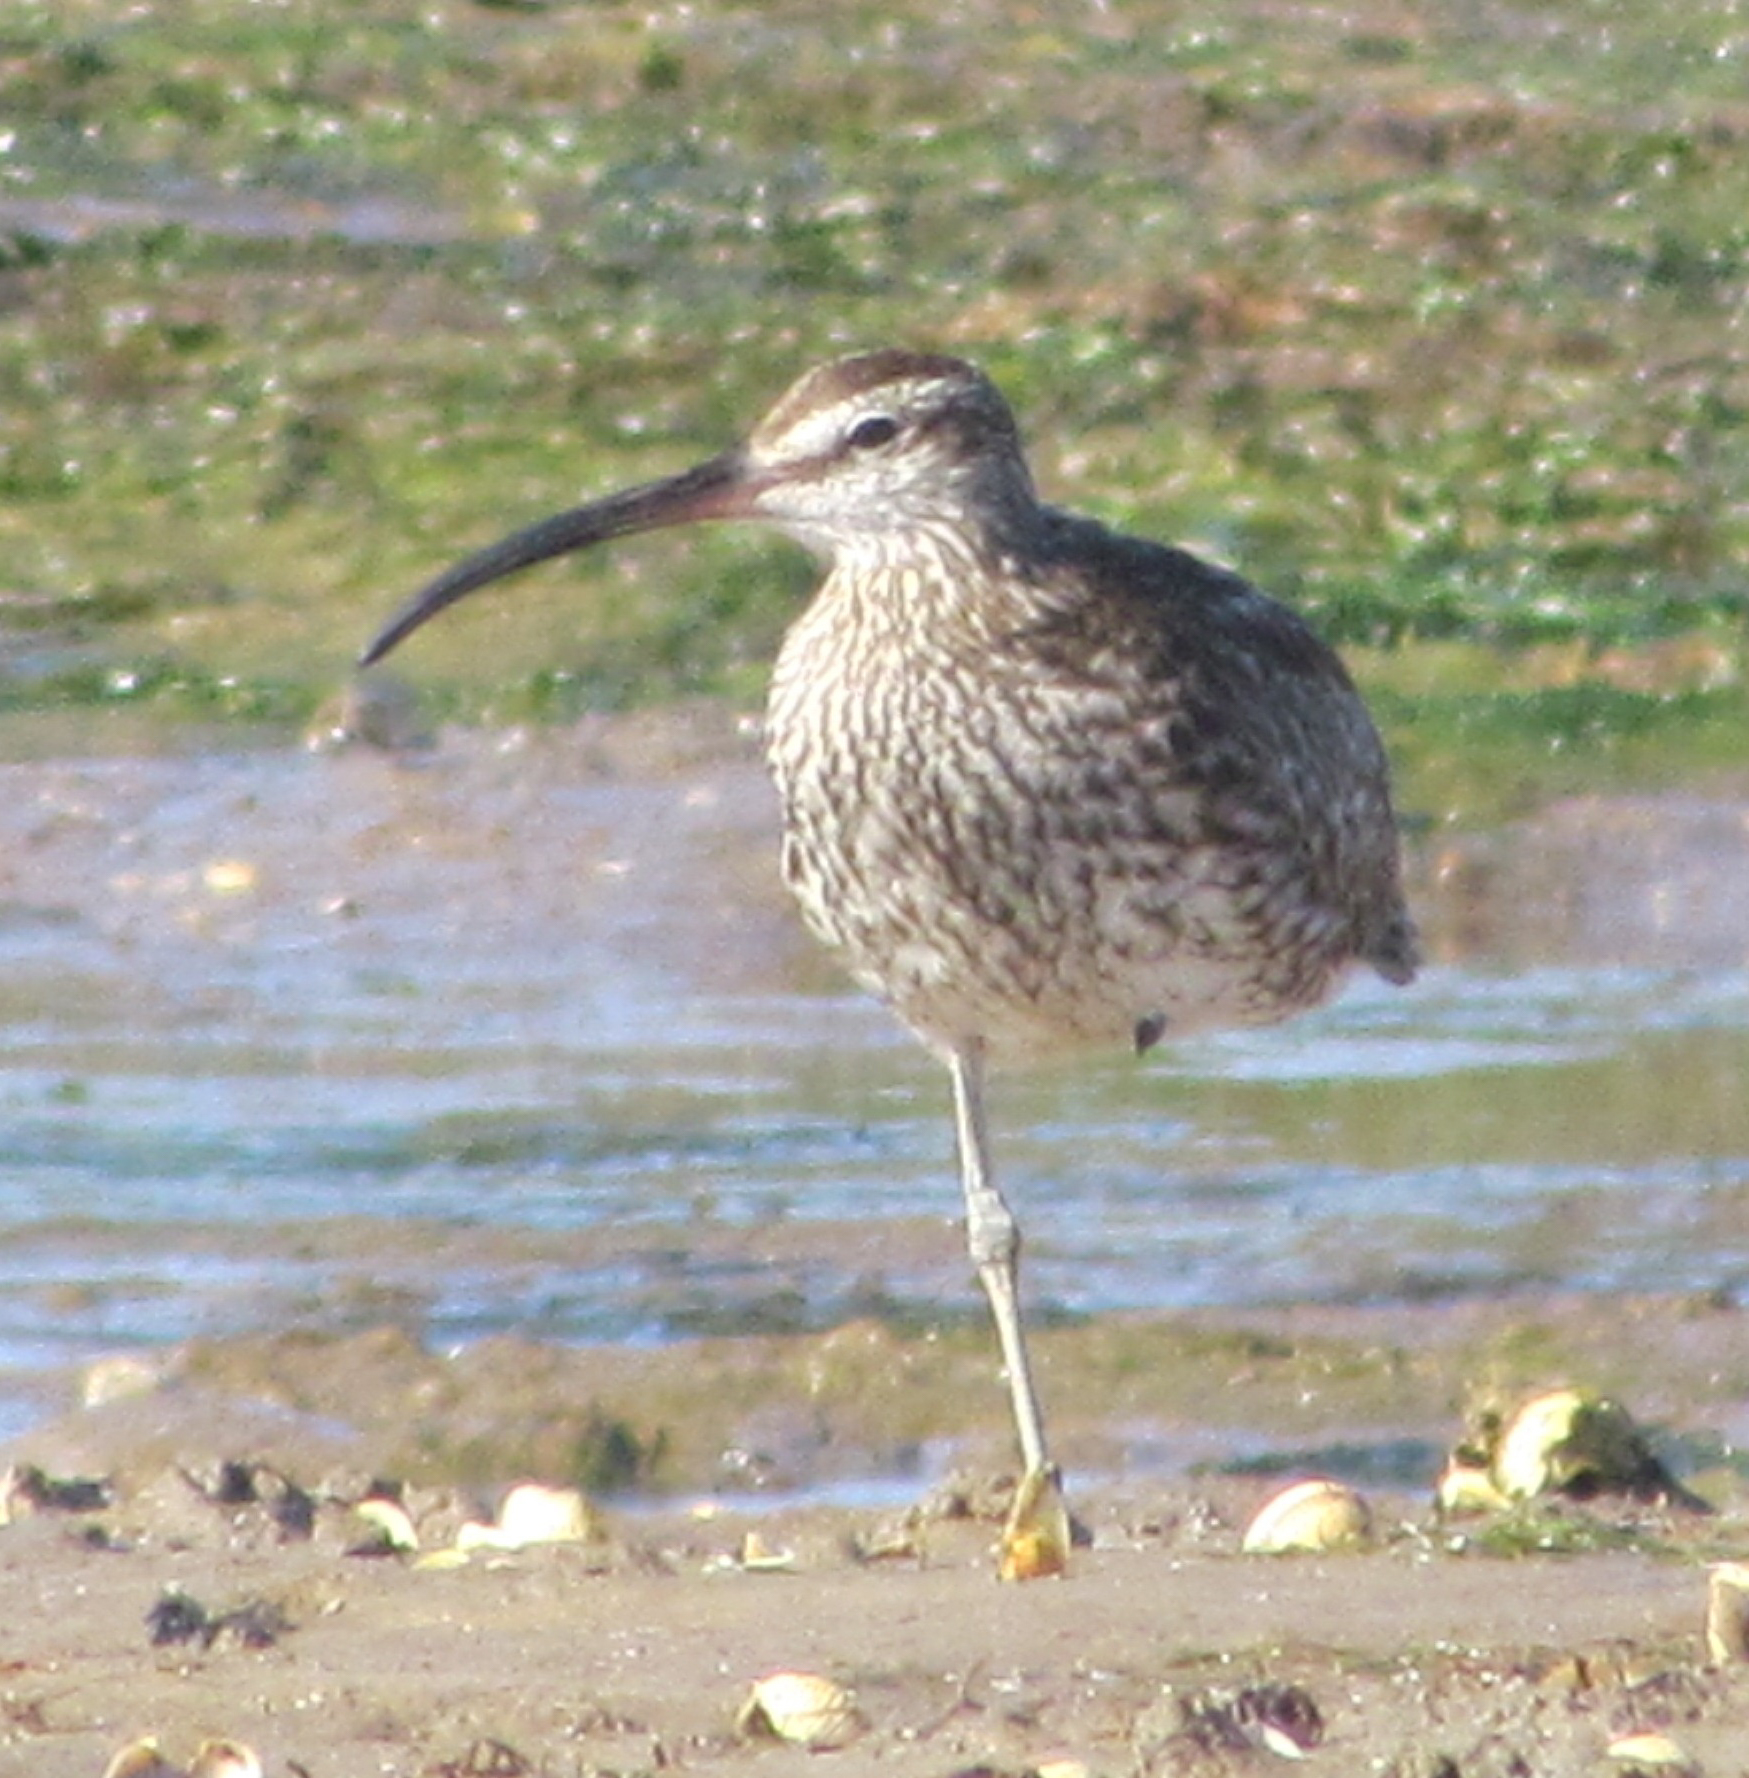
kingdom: Animalia
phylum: Chordata
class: Aves
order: Charadriiformes
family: Scolopacidae
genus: Numenius
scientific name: Numenius phaeopus
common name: Whimbrel
